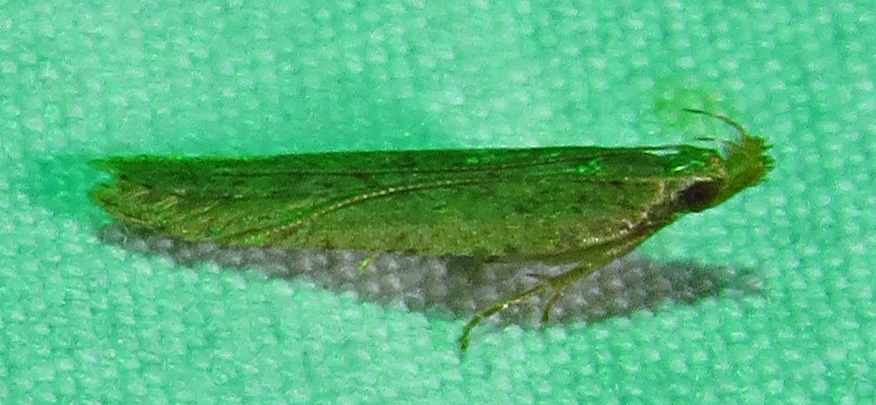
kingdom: Animalia
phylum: Arthropoda
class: Insecta
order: Lepidoptera
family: Gelechiidae
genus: Dichomeris
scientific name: Dichomeris ligulella
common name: Moth
